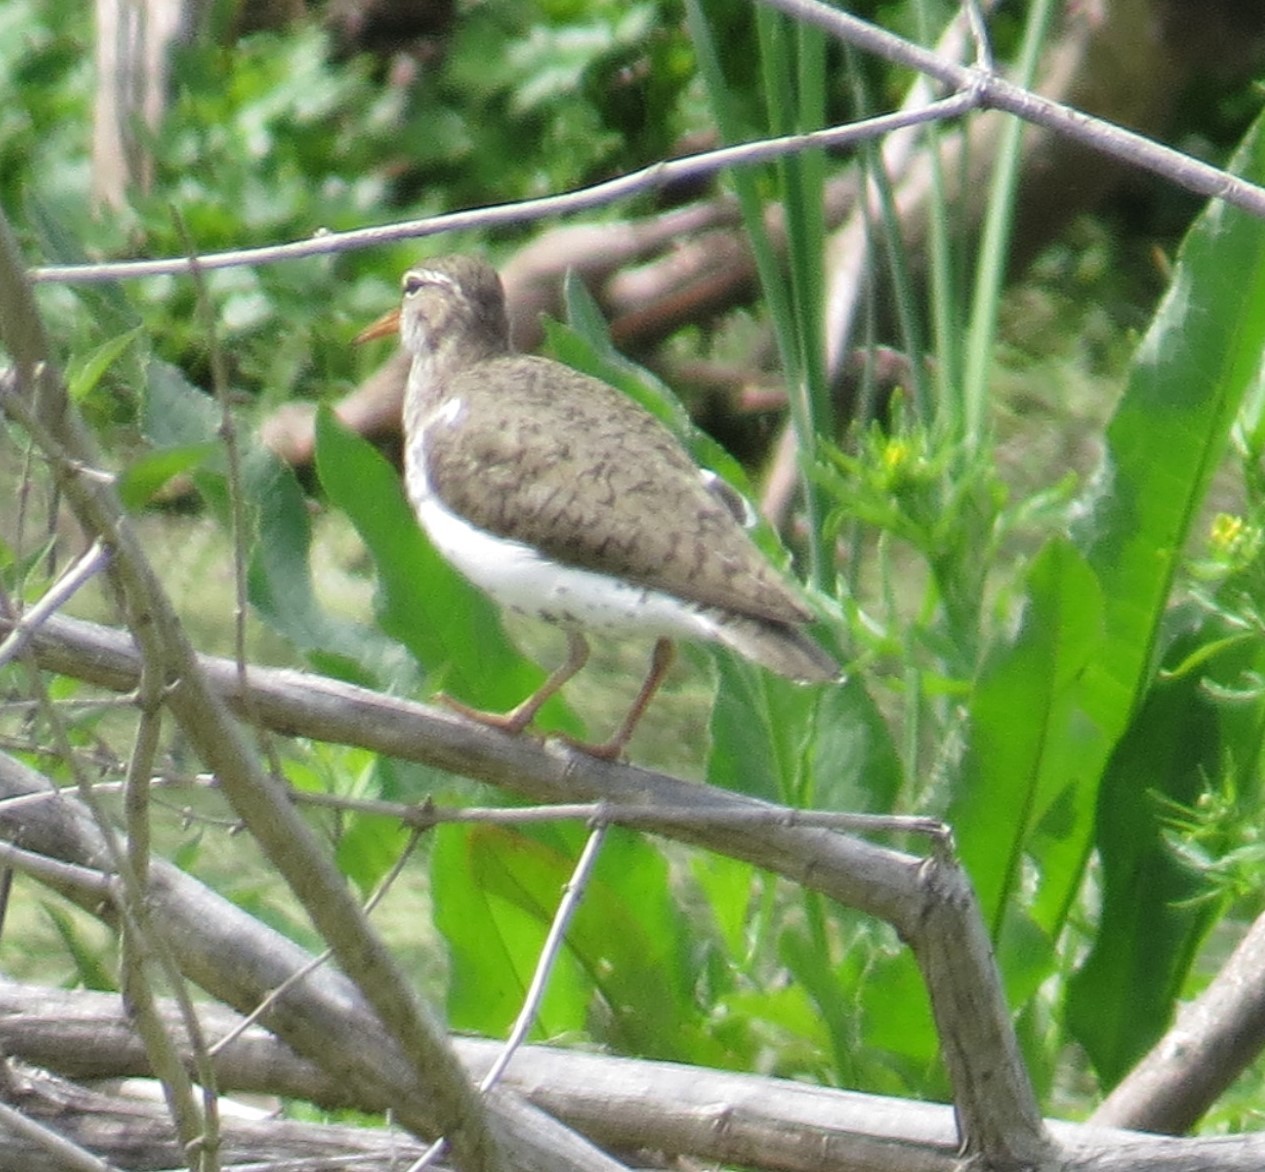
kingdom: Animalia
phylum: Chordata
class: Aves
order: Charadriiformes
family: Scolopacidae
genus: Actitis
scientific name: Actitis macularius
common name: Spotted sandpiper
